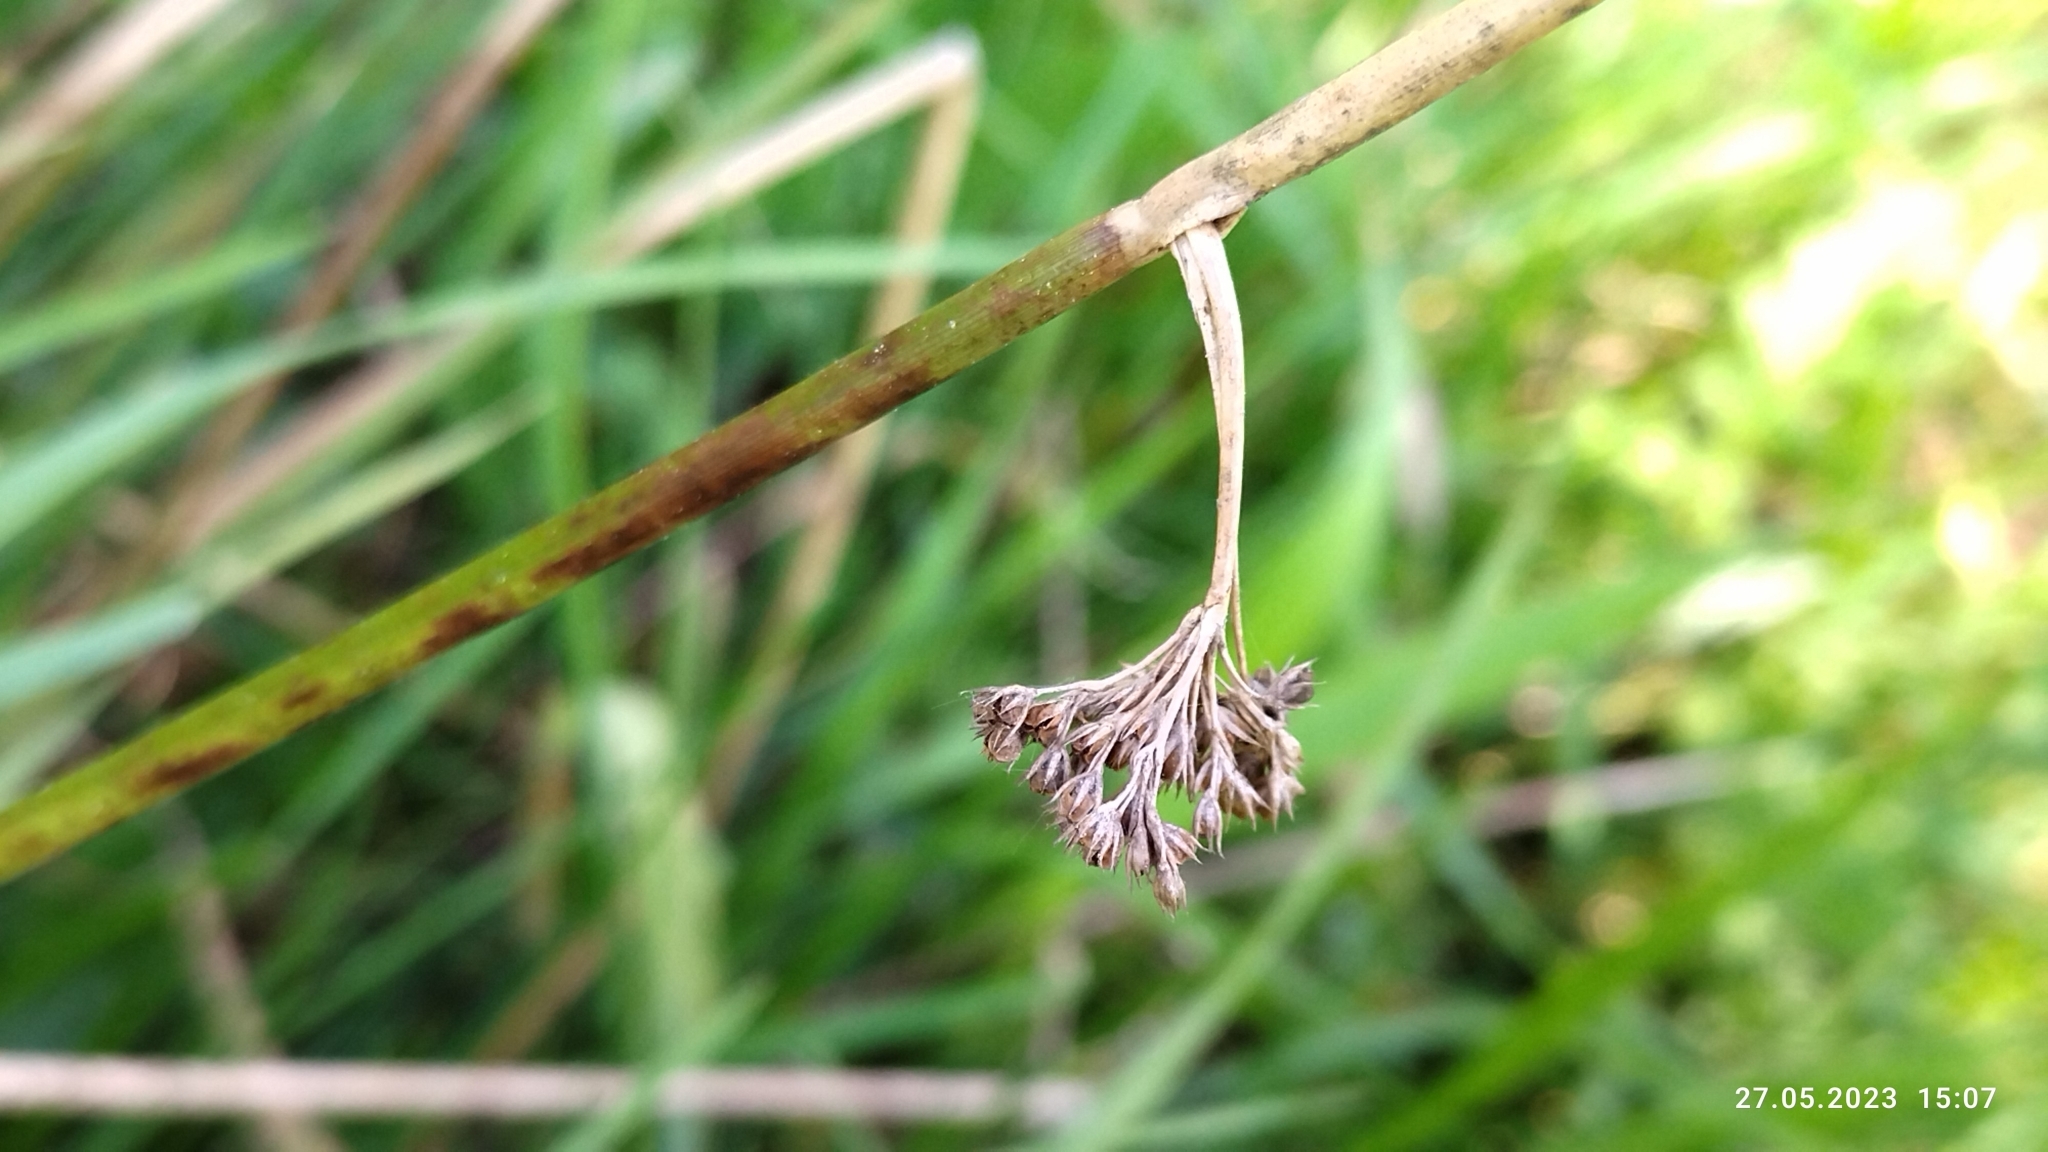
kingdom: Plantae
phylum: Tracheophyta
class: Liliopsida
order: Poales
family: Juncaceae
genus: Juncus
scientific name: Juncus effusus
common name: Soft rush
